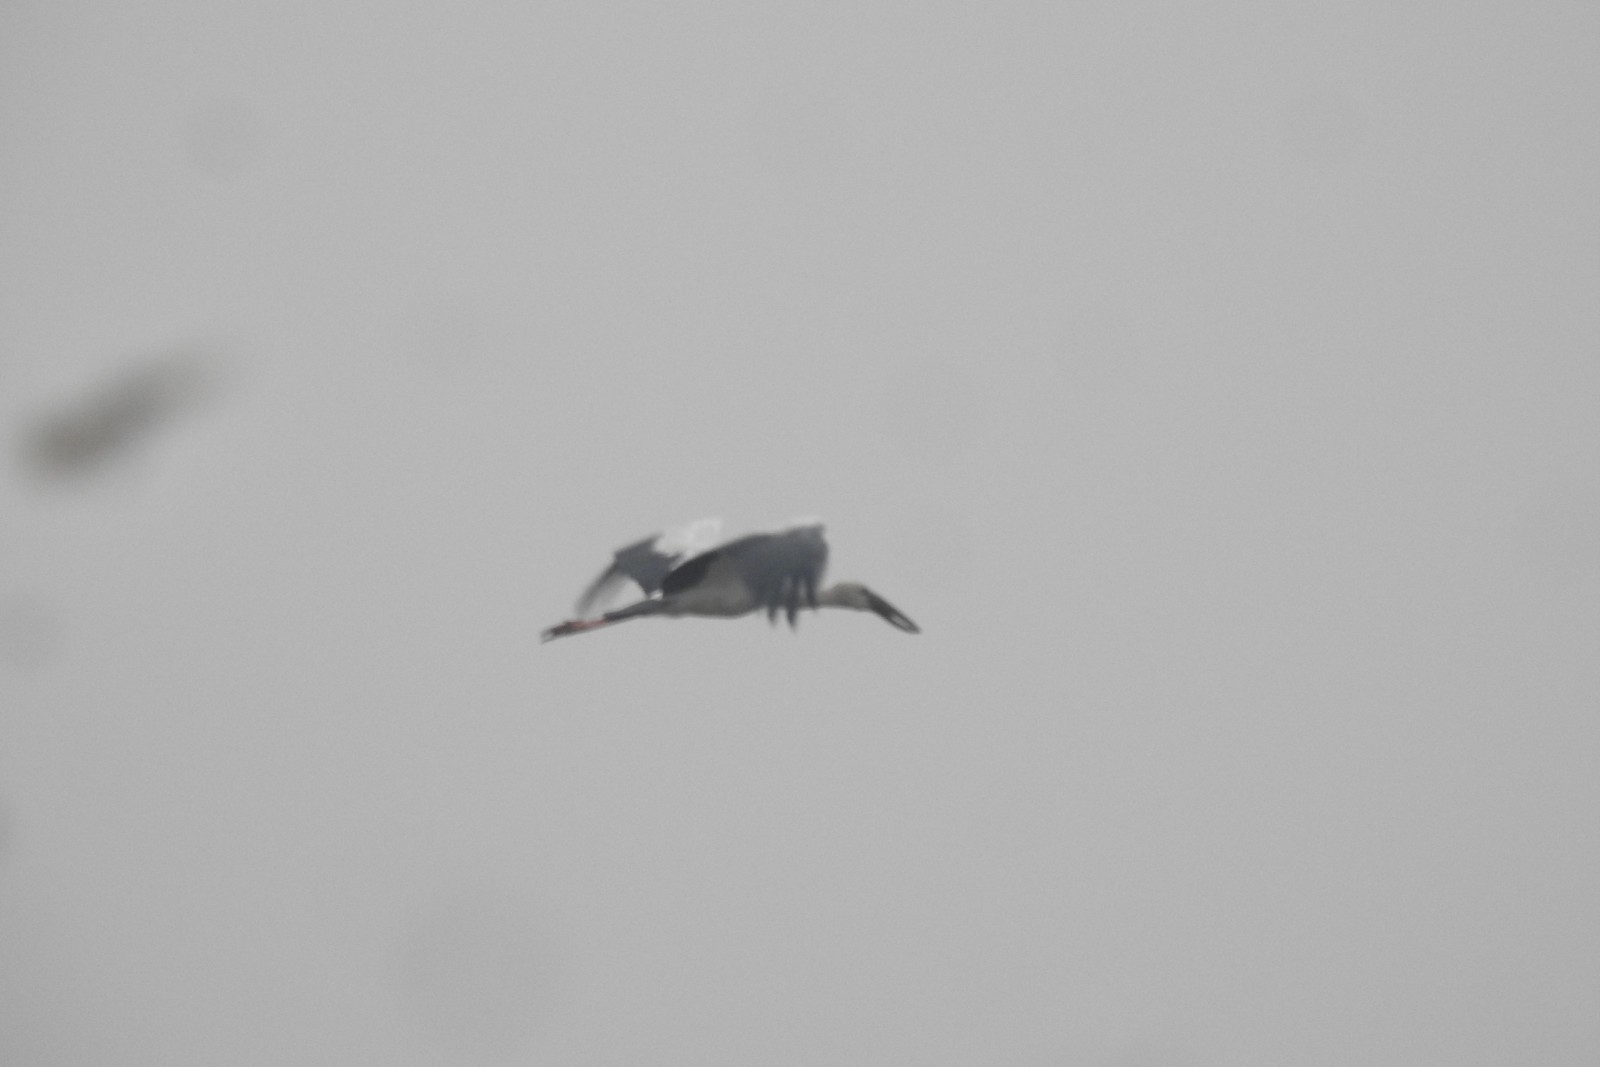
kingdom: Animalia
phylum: Chordata
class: Aves
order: Ciconiiformes
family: Ciconiidae
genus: Anastomus
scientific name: Anastomus oscitans
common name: Asian openbill
